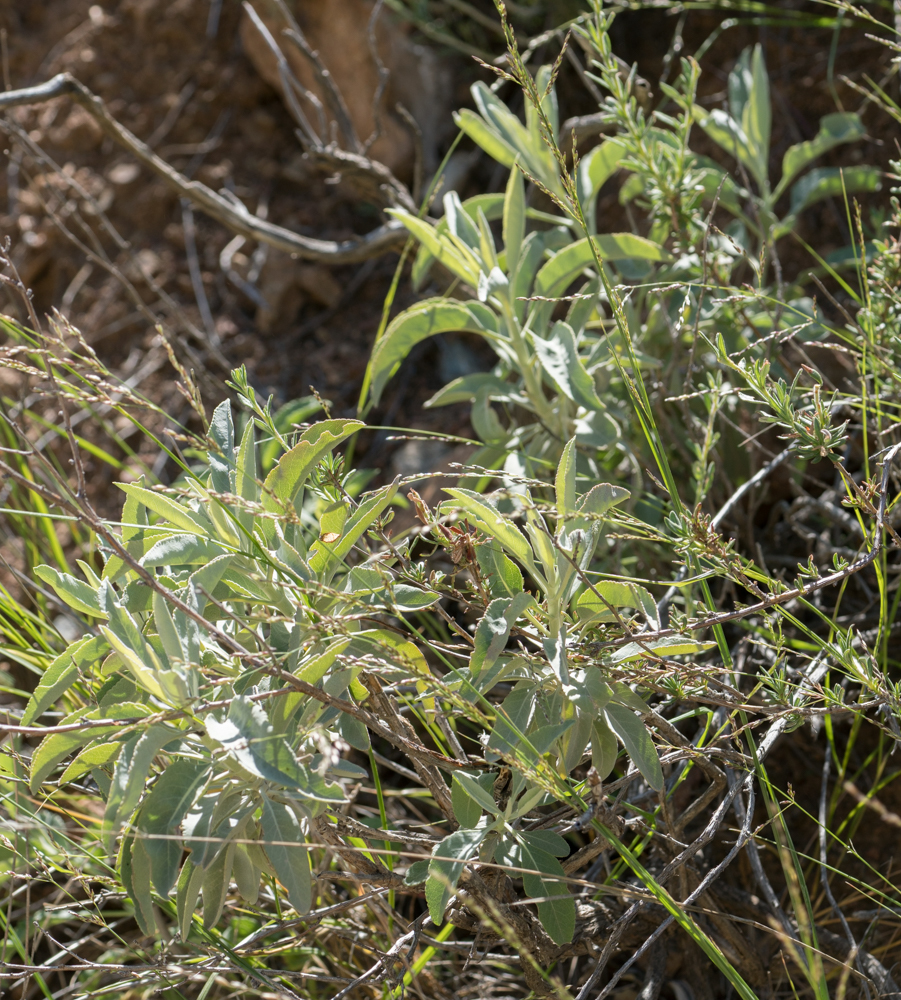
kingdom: Plantae
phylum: Tracheophyta
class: Magnoliopsida
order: Lamiales
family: Lamiaceae
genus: Salvia
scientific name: Salvia apiana
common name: White sage
